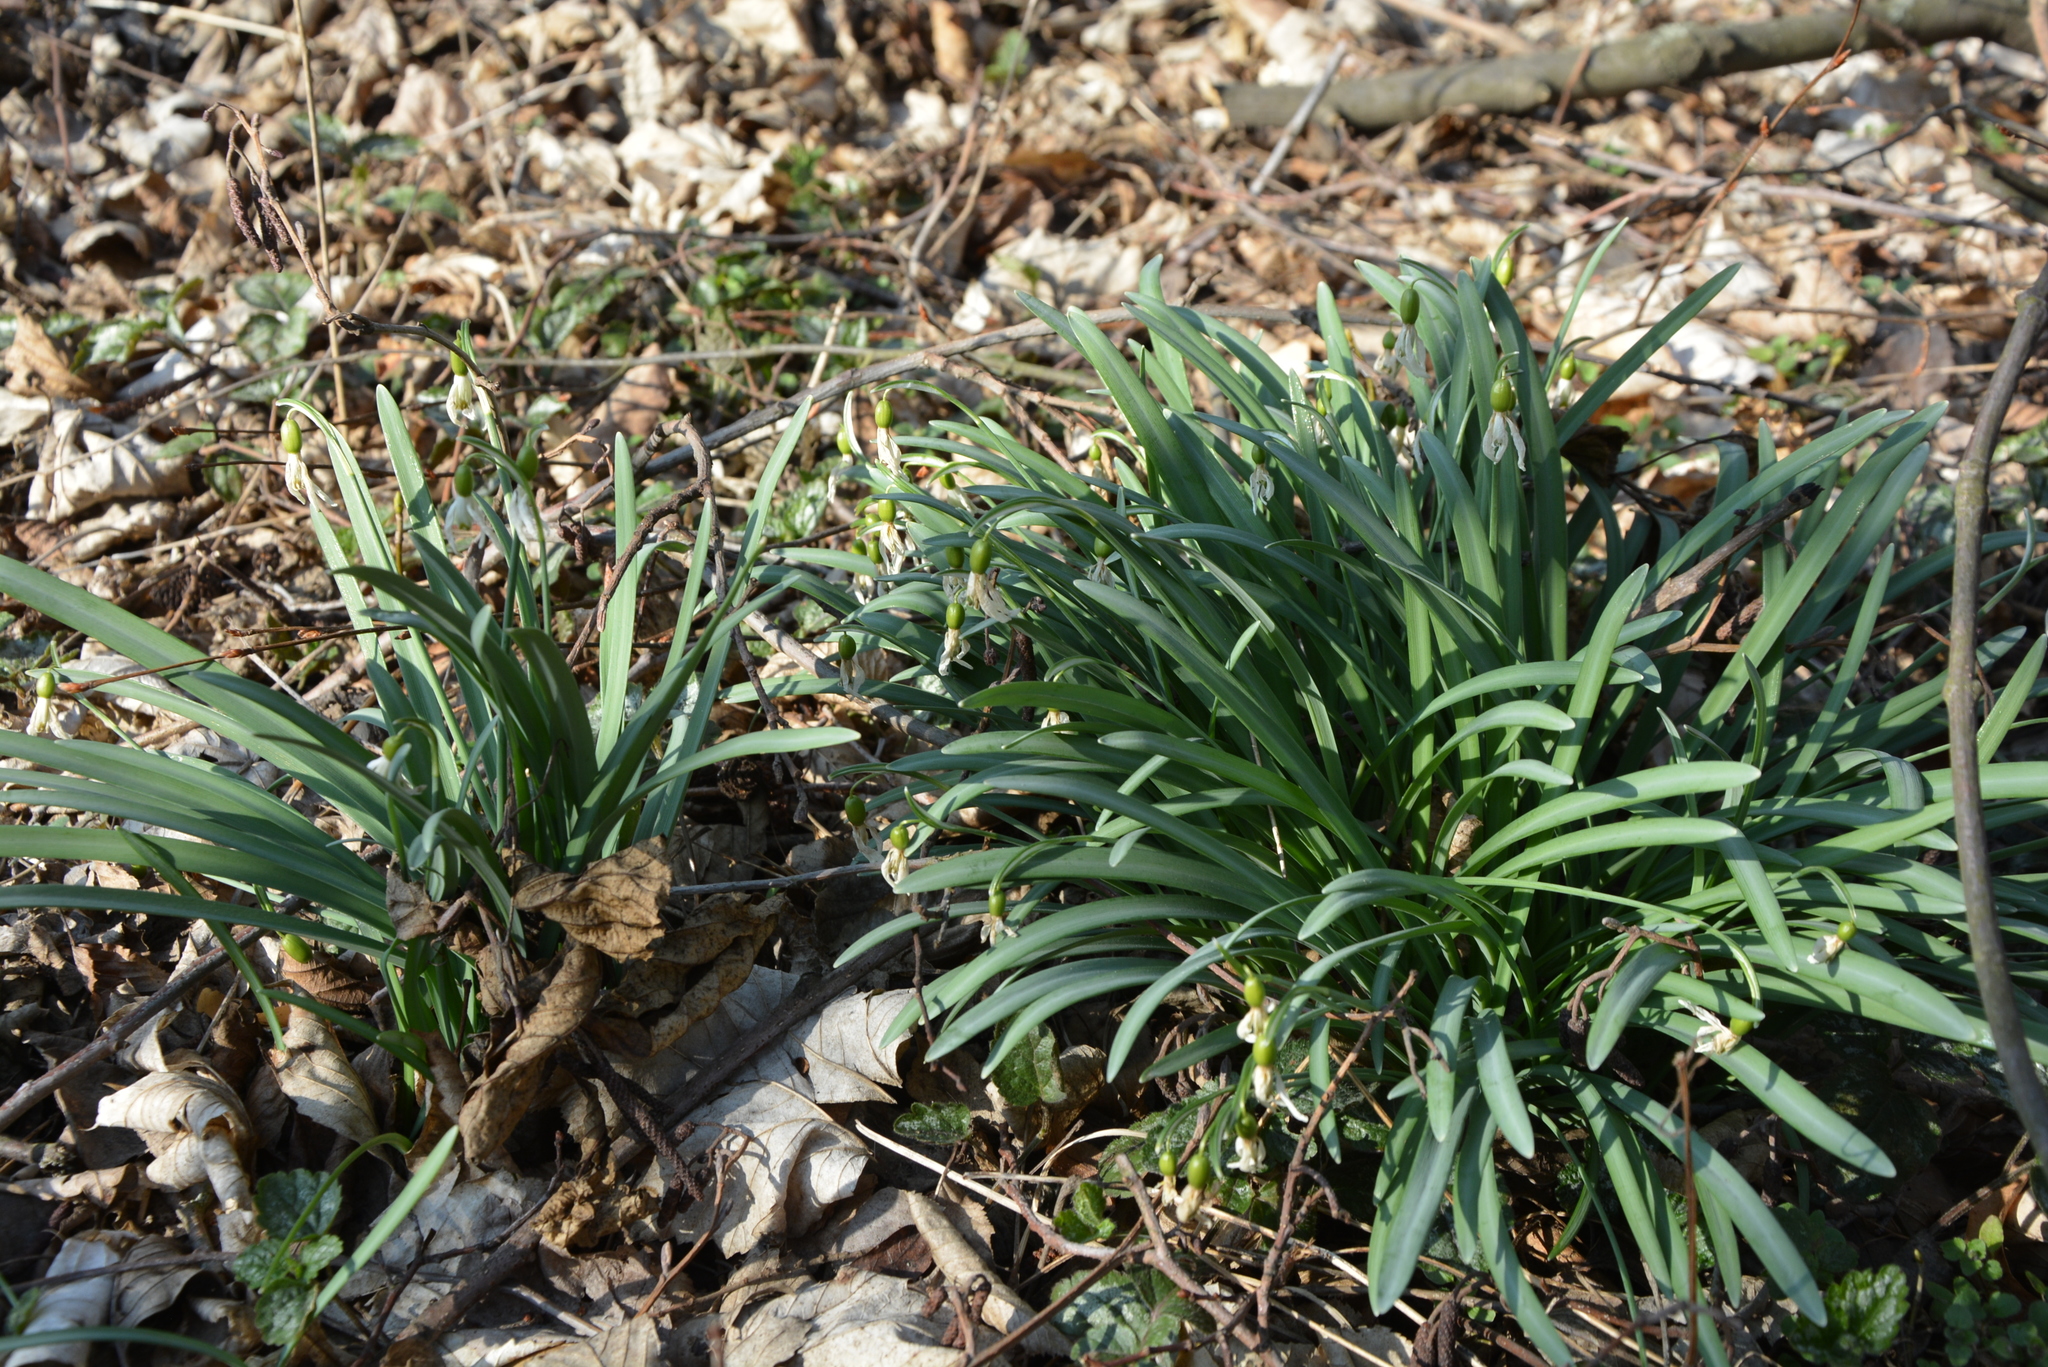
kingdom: Plantae
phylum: Tracheophyta
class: Liliopsida
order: Asparagales
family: Amaryllidaceae
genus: Galanthus
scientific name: Galanthus nivalis
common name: Snowdrop
